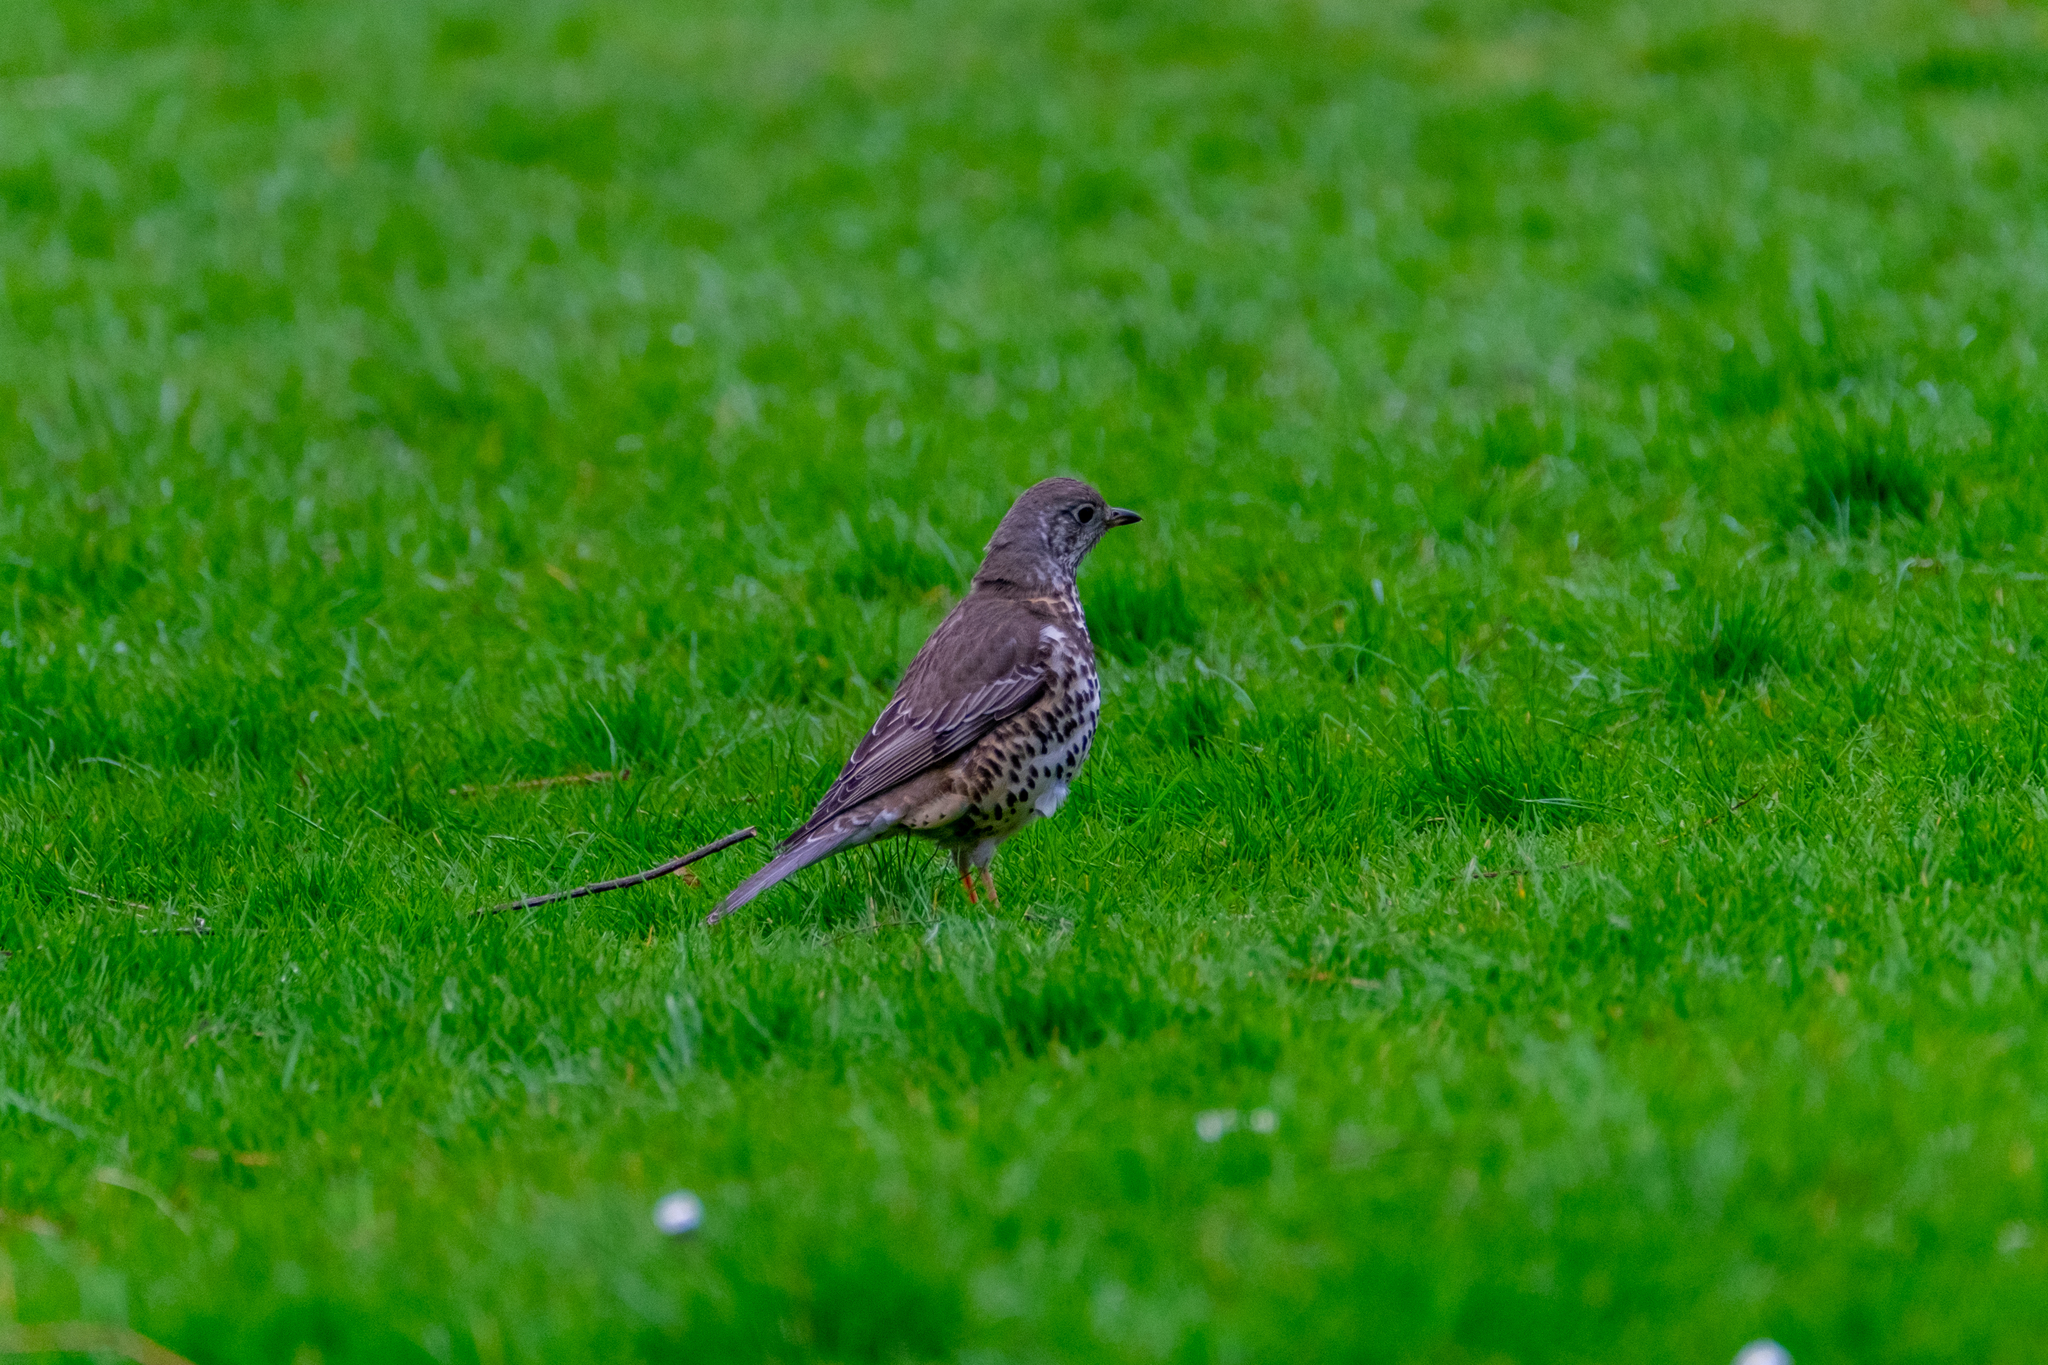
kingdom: Animalia
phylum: Chordata
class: Aves
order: Passeriformes
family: Turdidae
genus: Turdus
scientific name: Turdus viscivorus
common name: Mistle thrush
